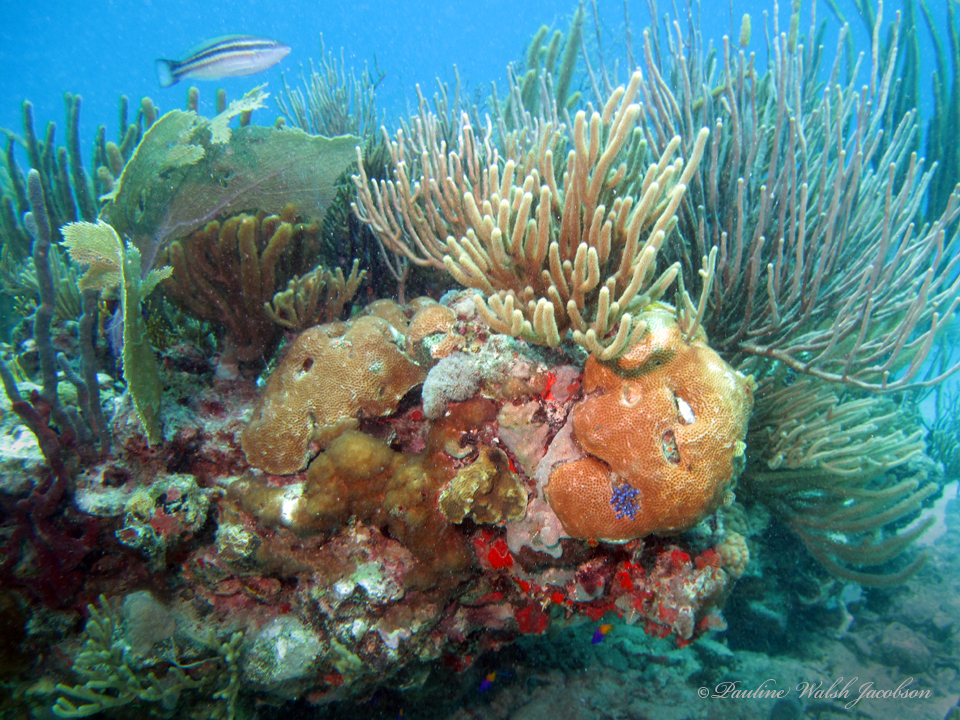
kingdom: Animalia
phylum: Chordata
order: Perciformes
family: Scaridae
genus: Scarus
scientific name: Scarus taeniopterus
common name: Princess parrotfish
